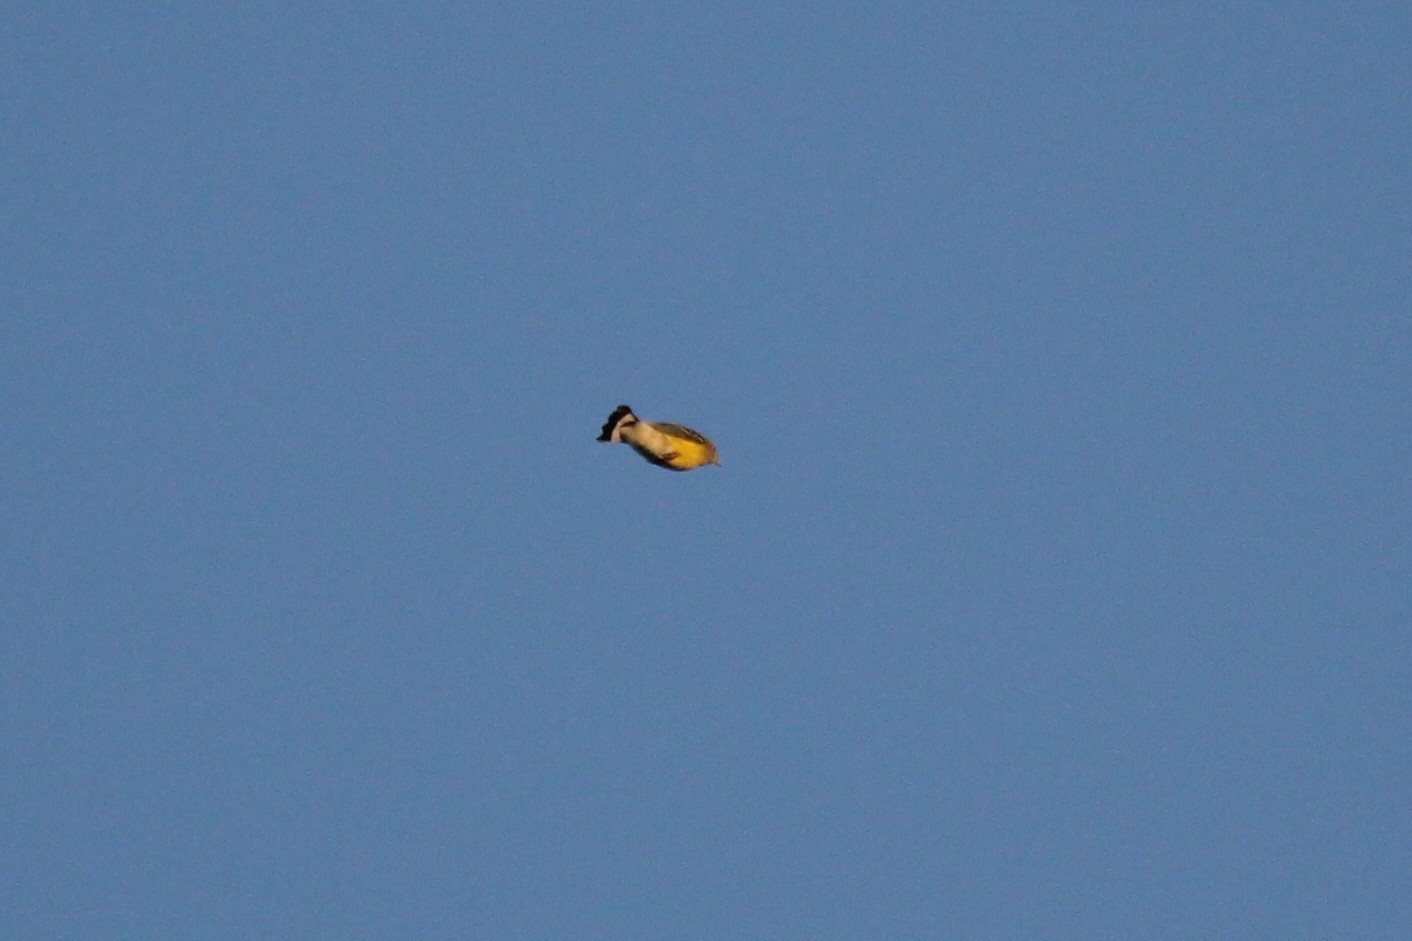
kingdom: Animalia
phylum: Chordata
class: Aves
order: Passeriformes
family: Parulidae
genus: Setophaga
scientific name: Setophaga magnolia
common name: Magnolia warbler
